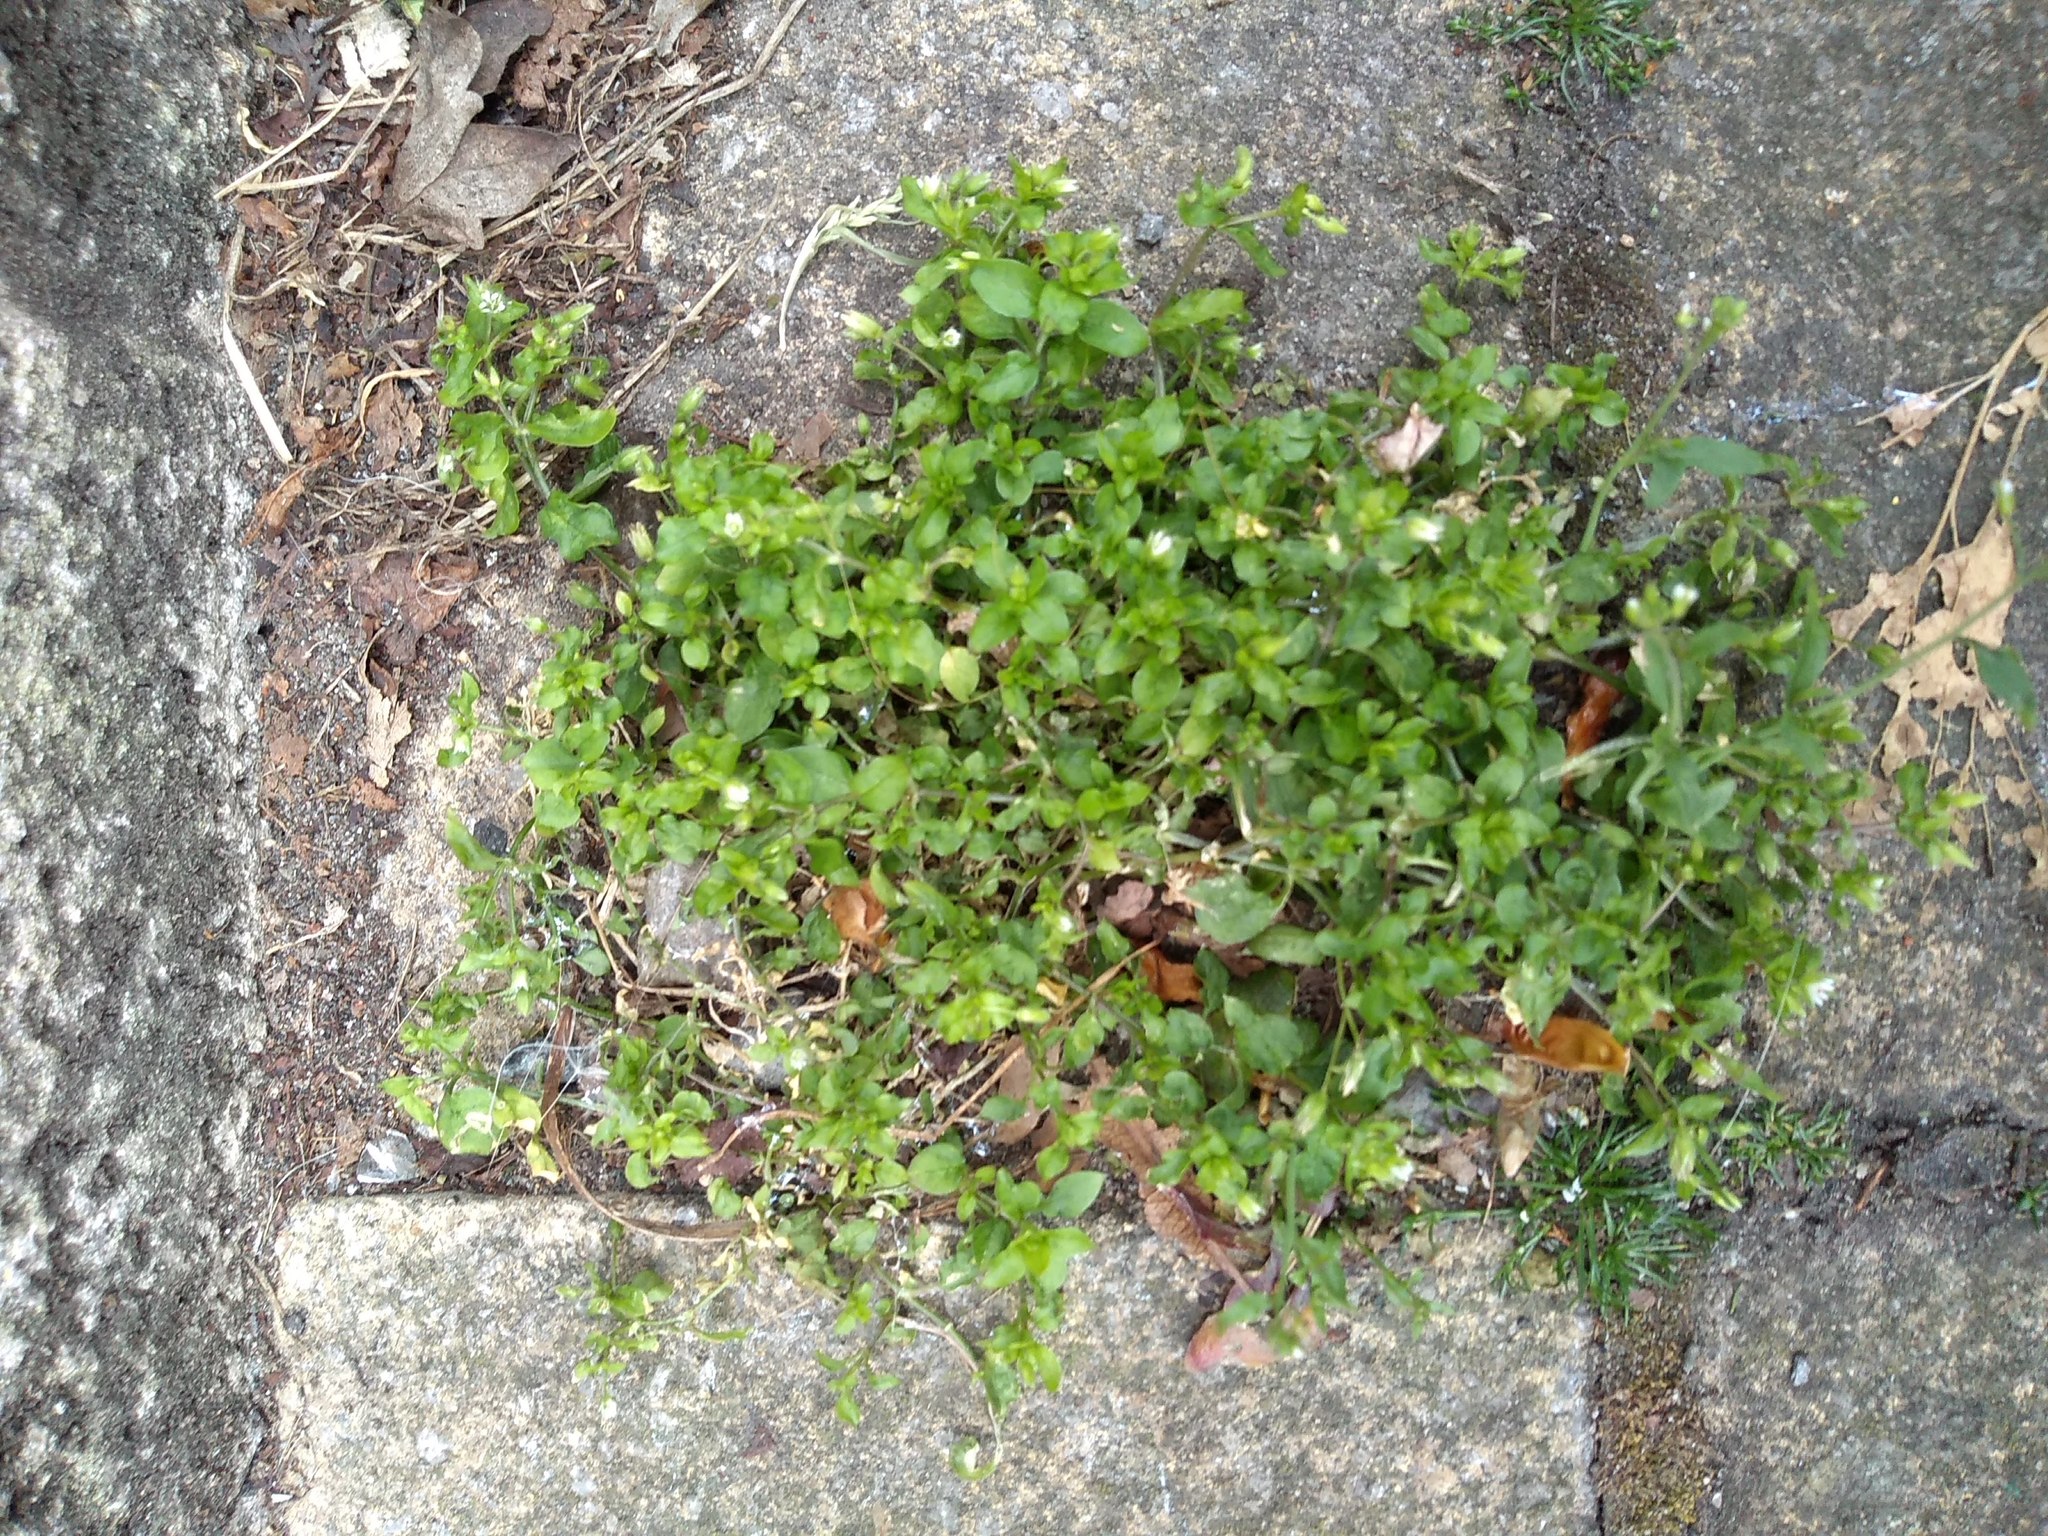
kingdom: Plantae
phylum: Tracheophyta
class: Magnoliopsida
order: Caryophyllales
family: Caryophyllaceae
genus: Stellaria
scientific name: Stellaria media
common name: Common chickweed
